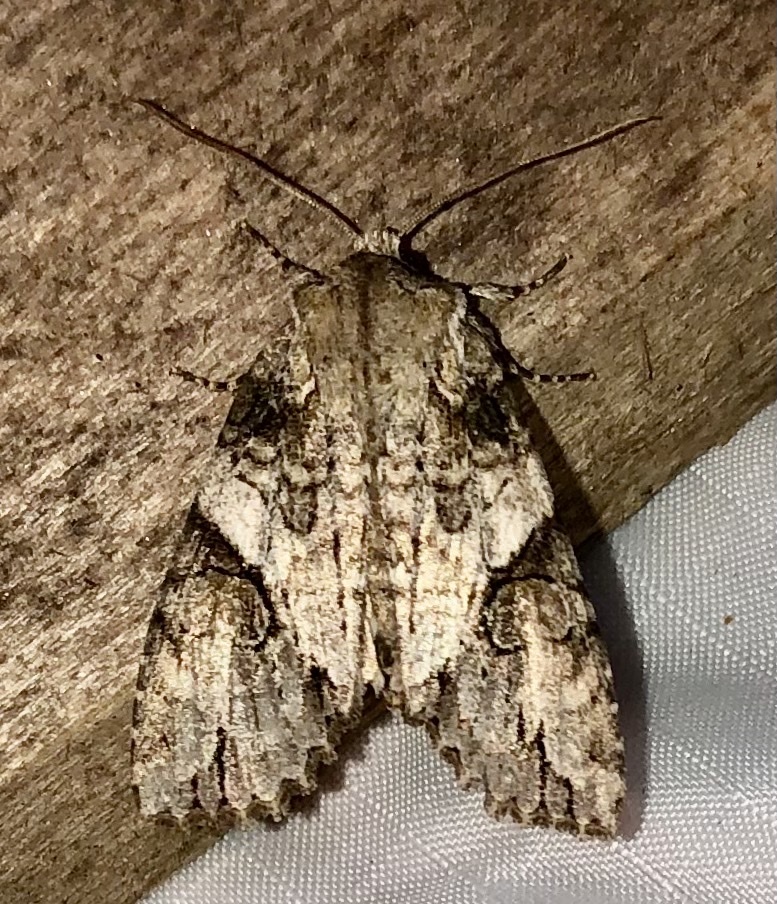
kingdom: Animalia
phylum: Arthropoda
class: Insecta
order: Lepidoptera
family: Noctuidae
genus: Achatia
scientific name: Achatia latex
